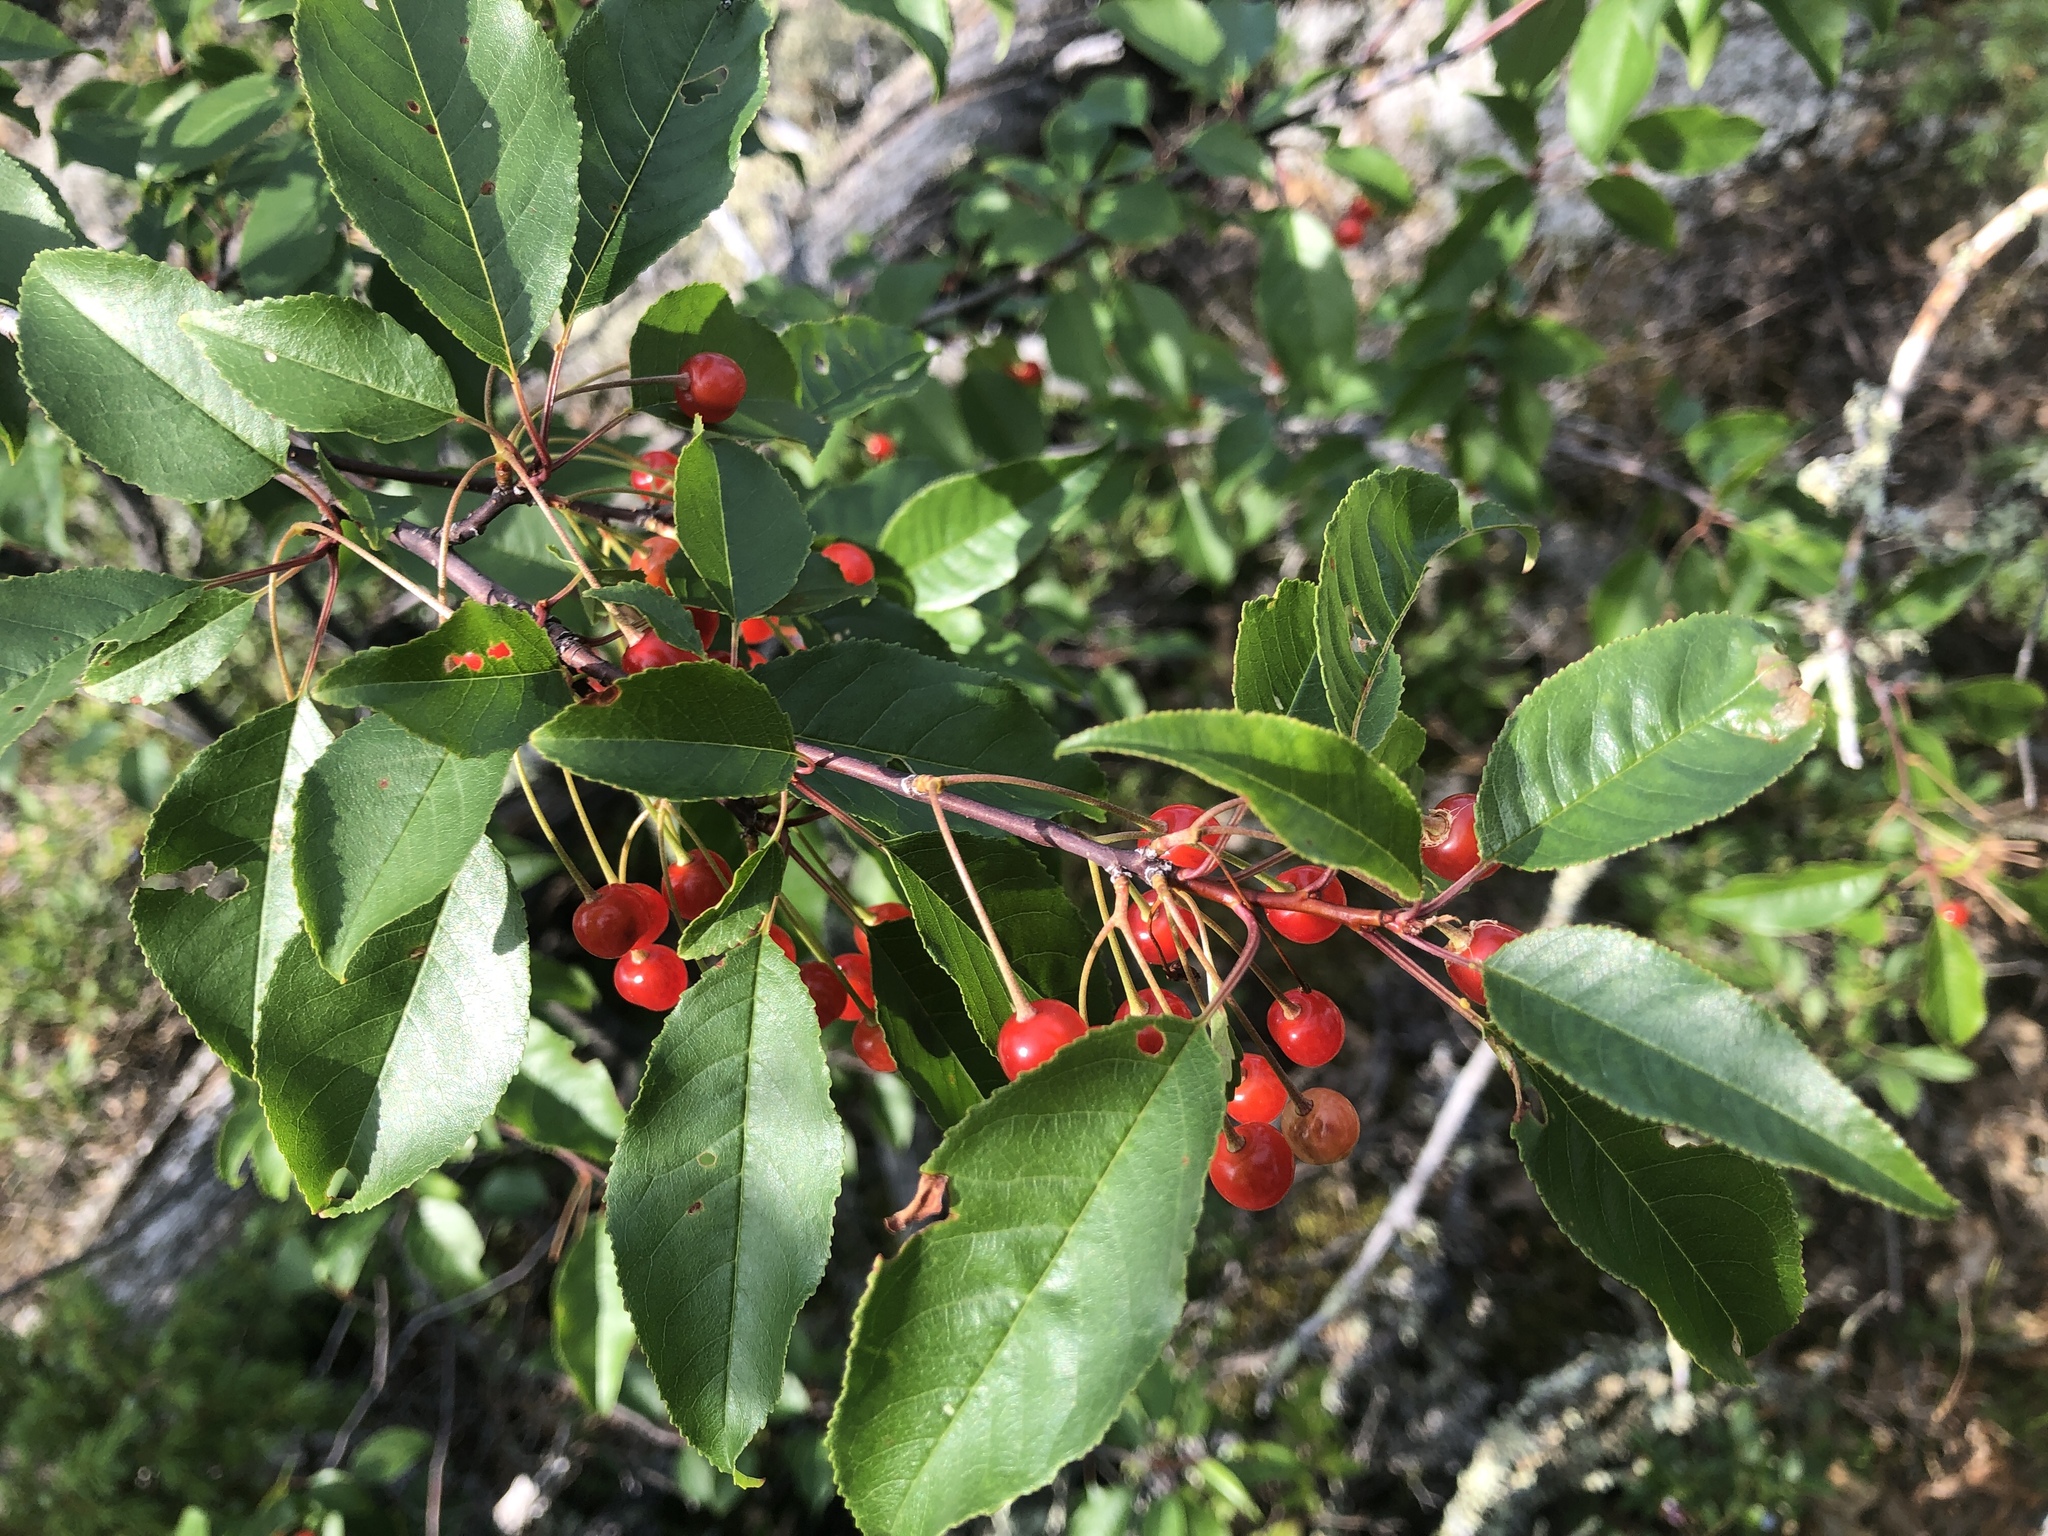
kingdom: Plantae
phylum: Tracheophyta
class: Magnoliopsida
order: Rosales
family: Rosaceae
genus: Prunus
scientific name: Prunus pensylvanica
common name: Pin cherry
